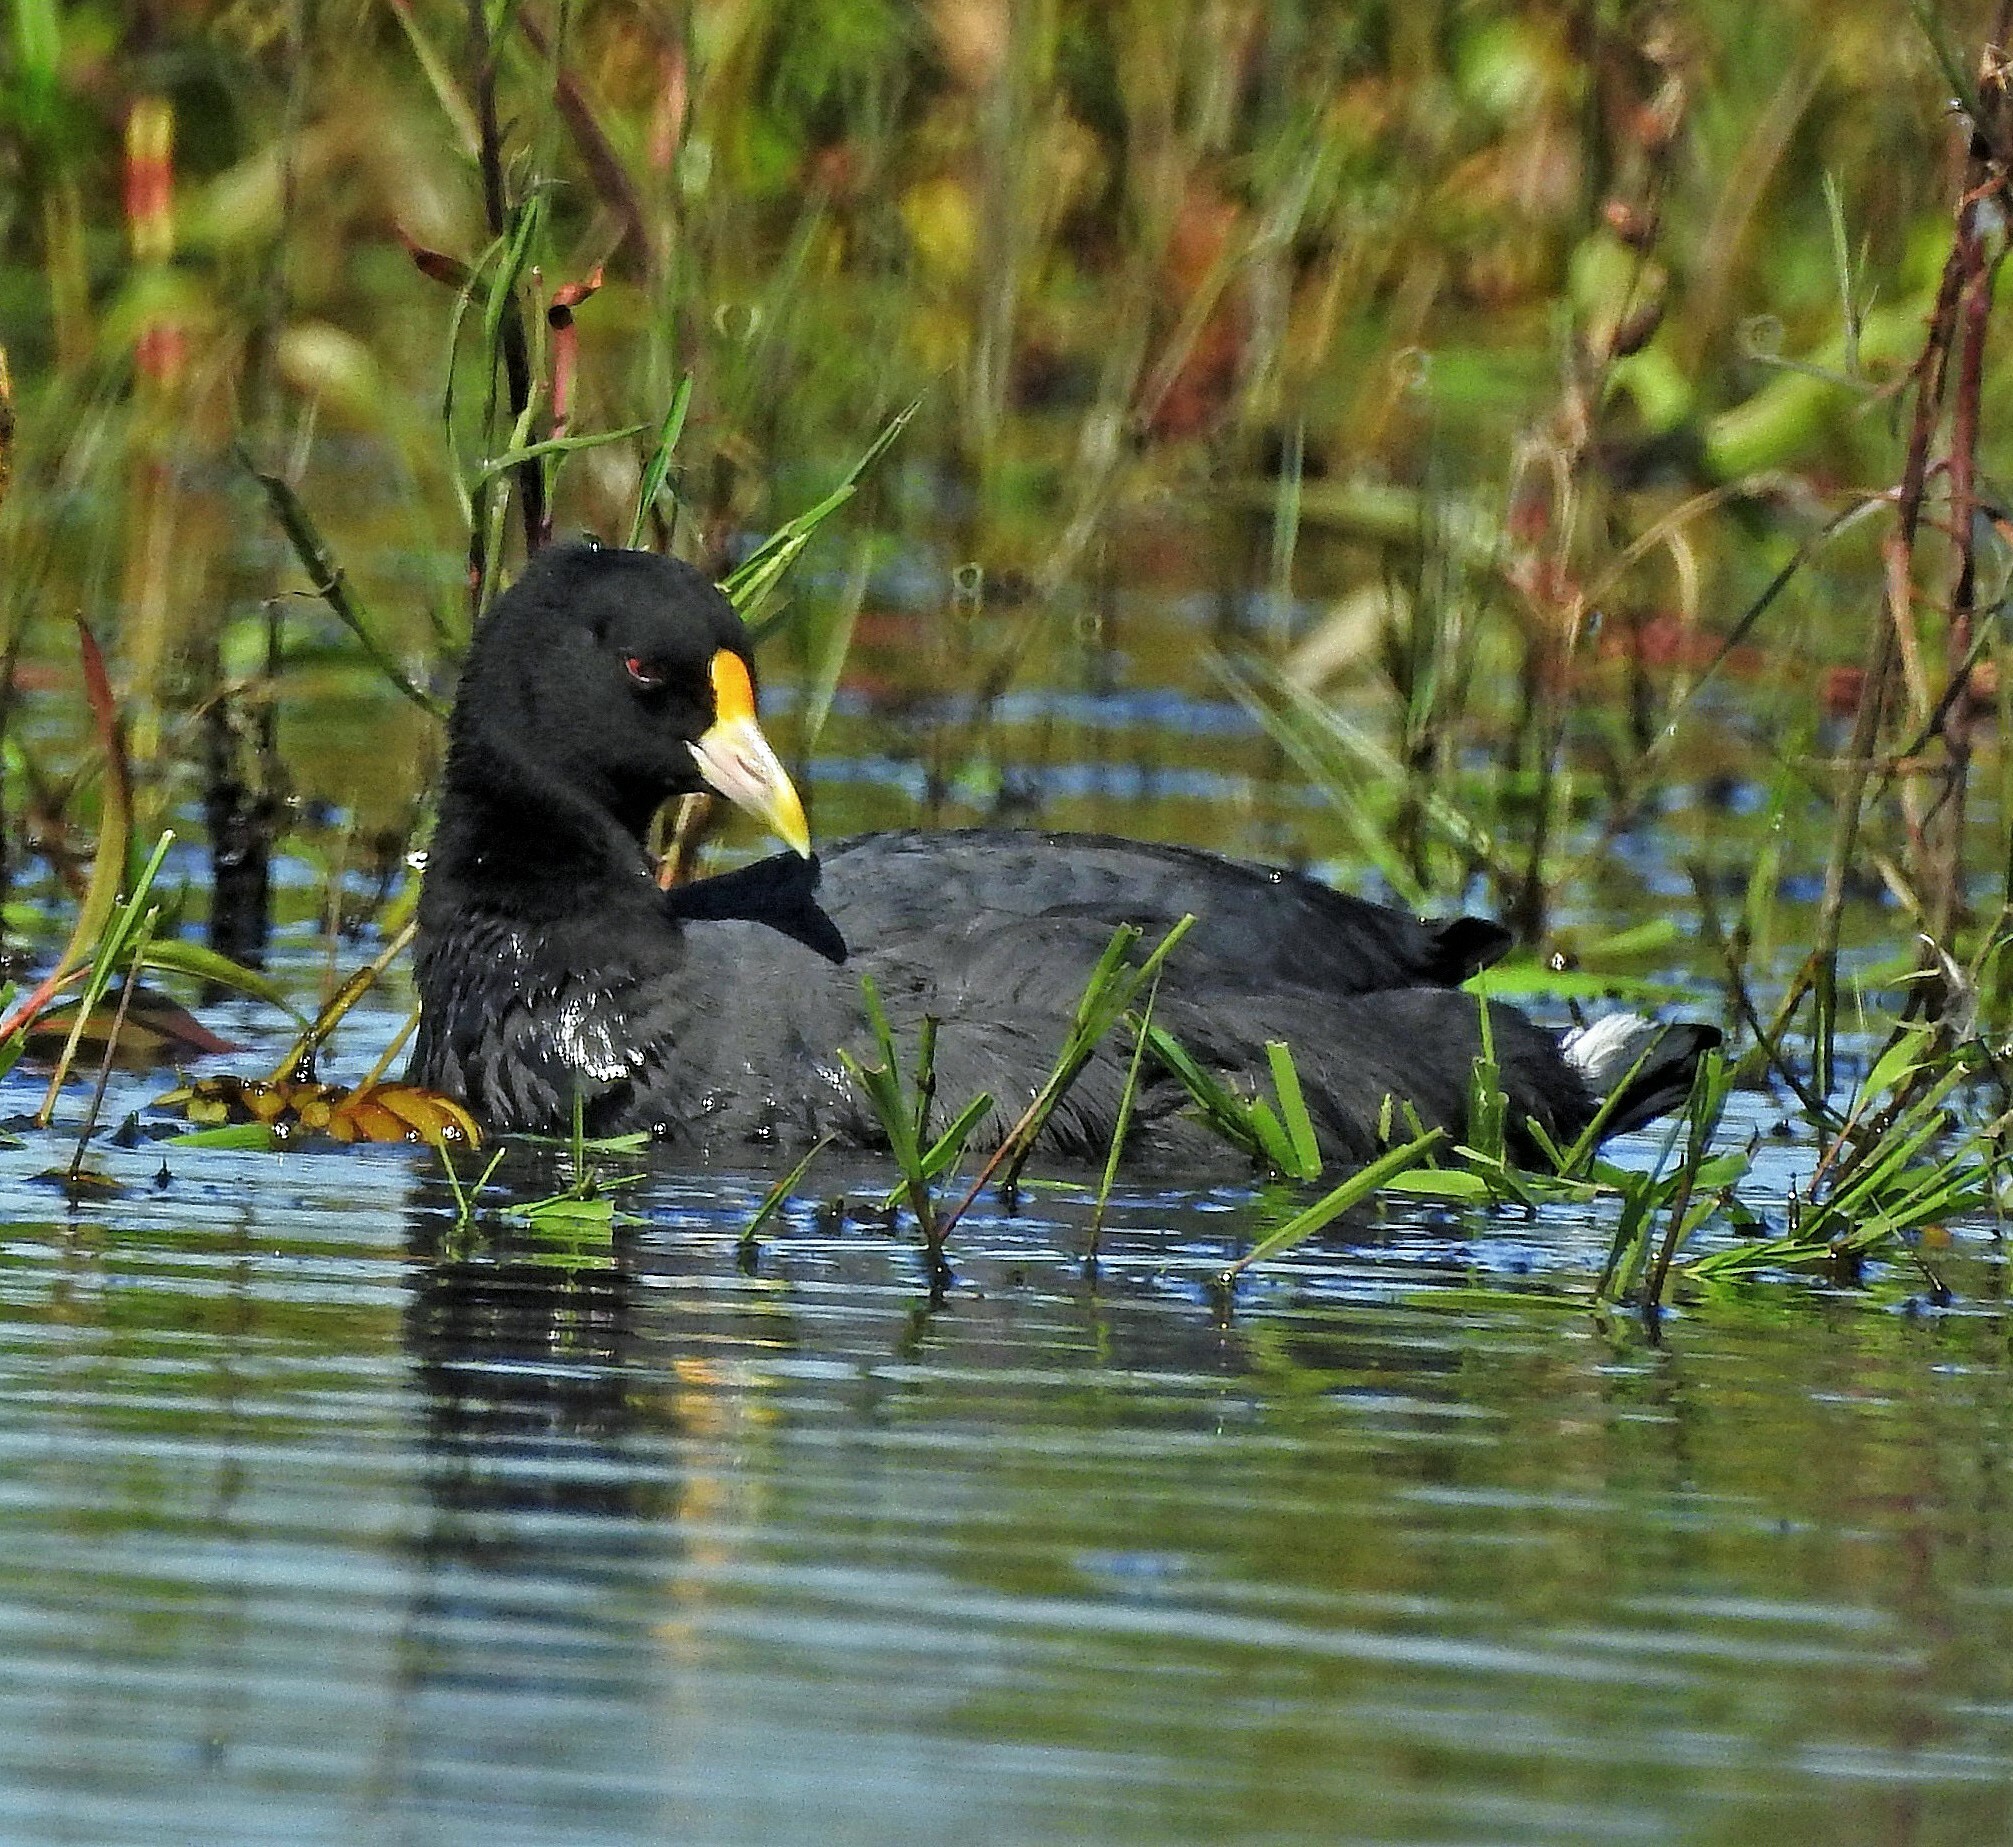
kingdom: Animalia
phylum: Chordata
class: Aves
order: Gruiformes
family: Rallidae
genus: Fulica
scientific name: Fulica leucoptera
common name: White-winged coot
